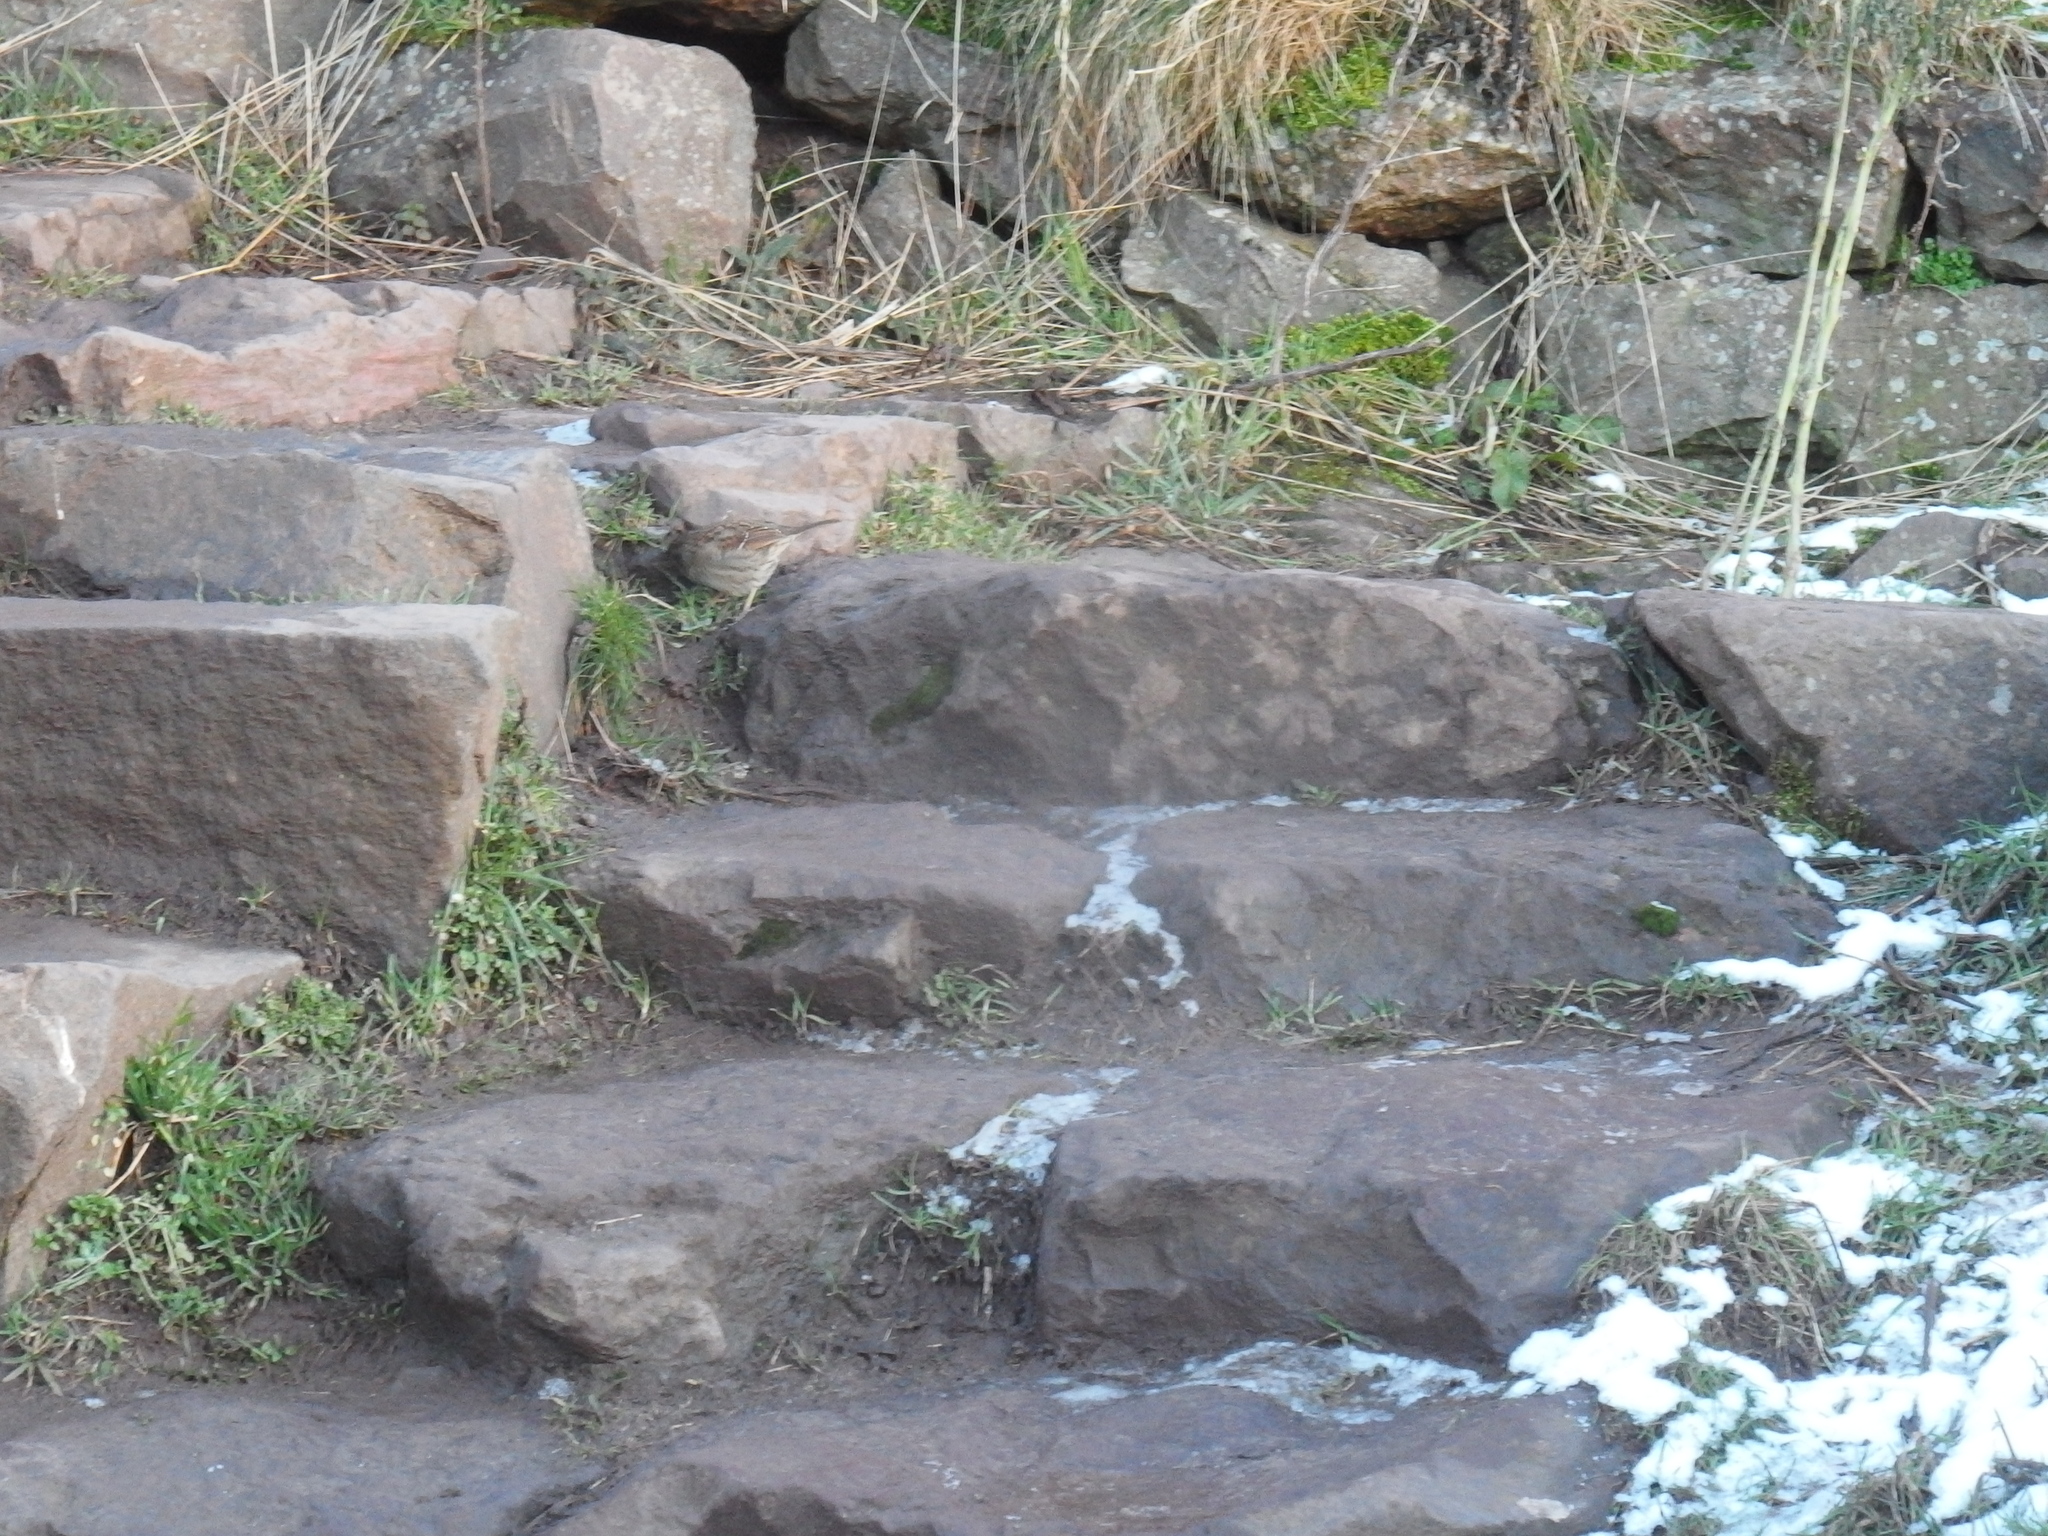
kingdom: Animalia
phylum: Chordata
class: Aves
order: Passeriformes
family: Prunellidae
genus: Prunella
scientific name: Prunella modularis
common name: Dunnock
